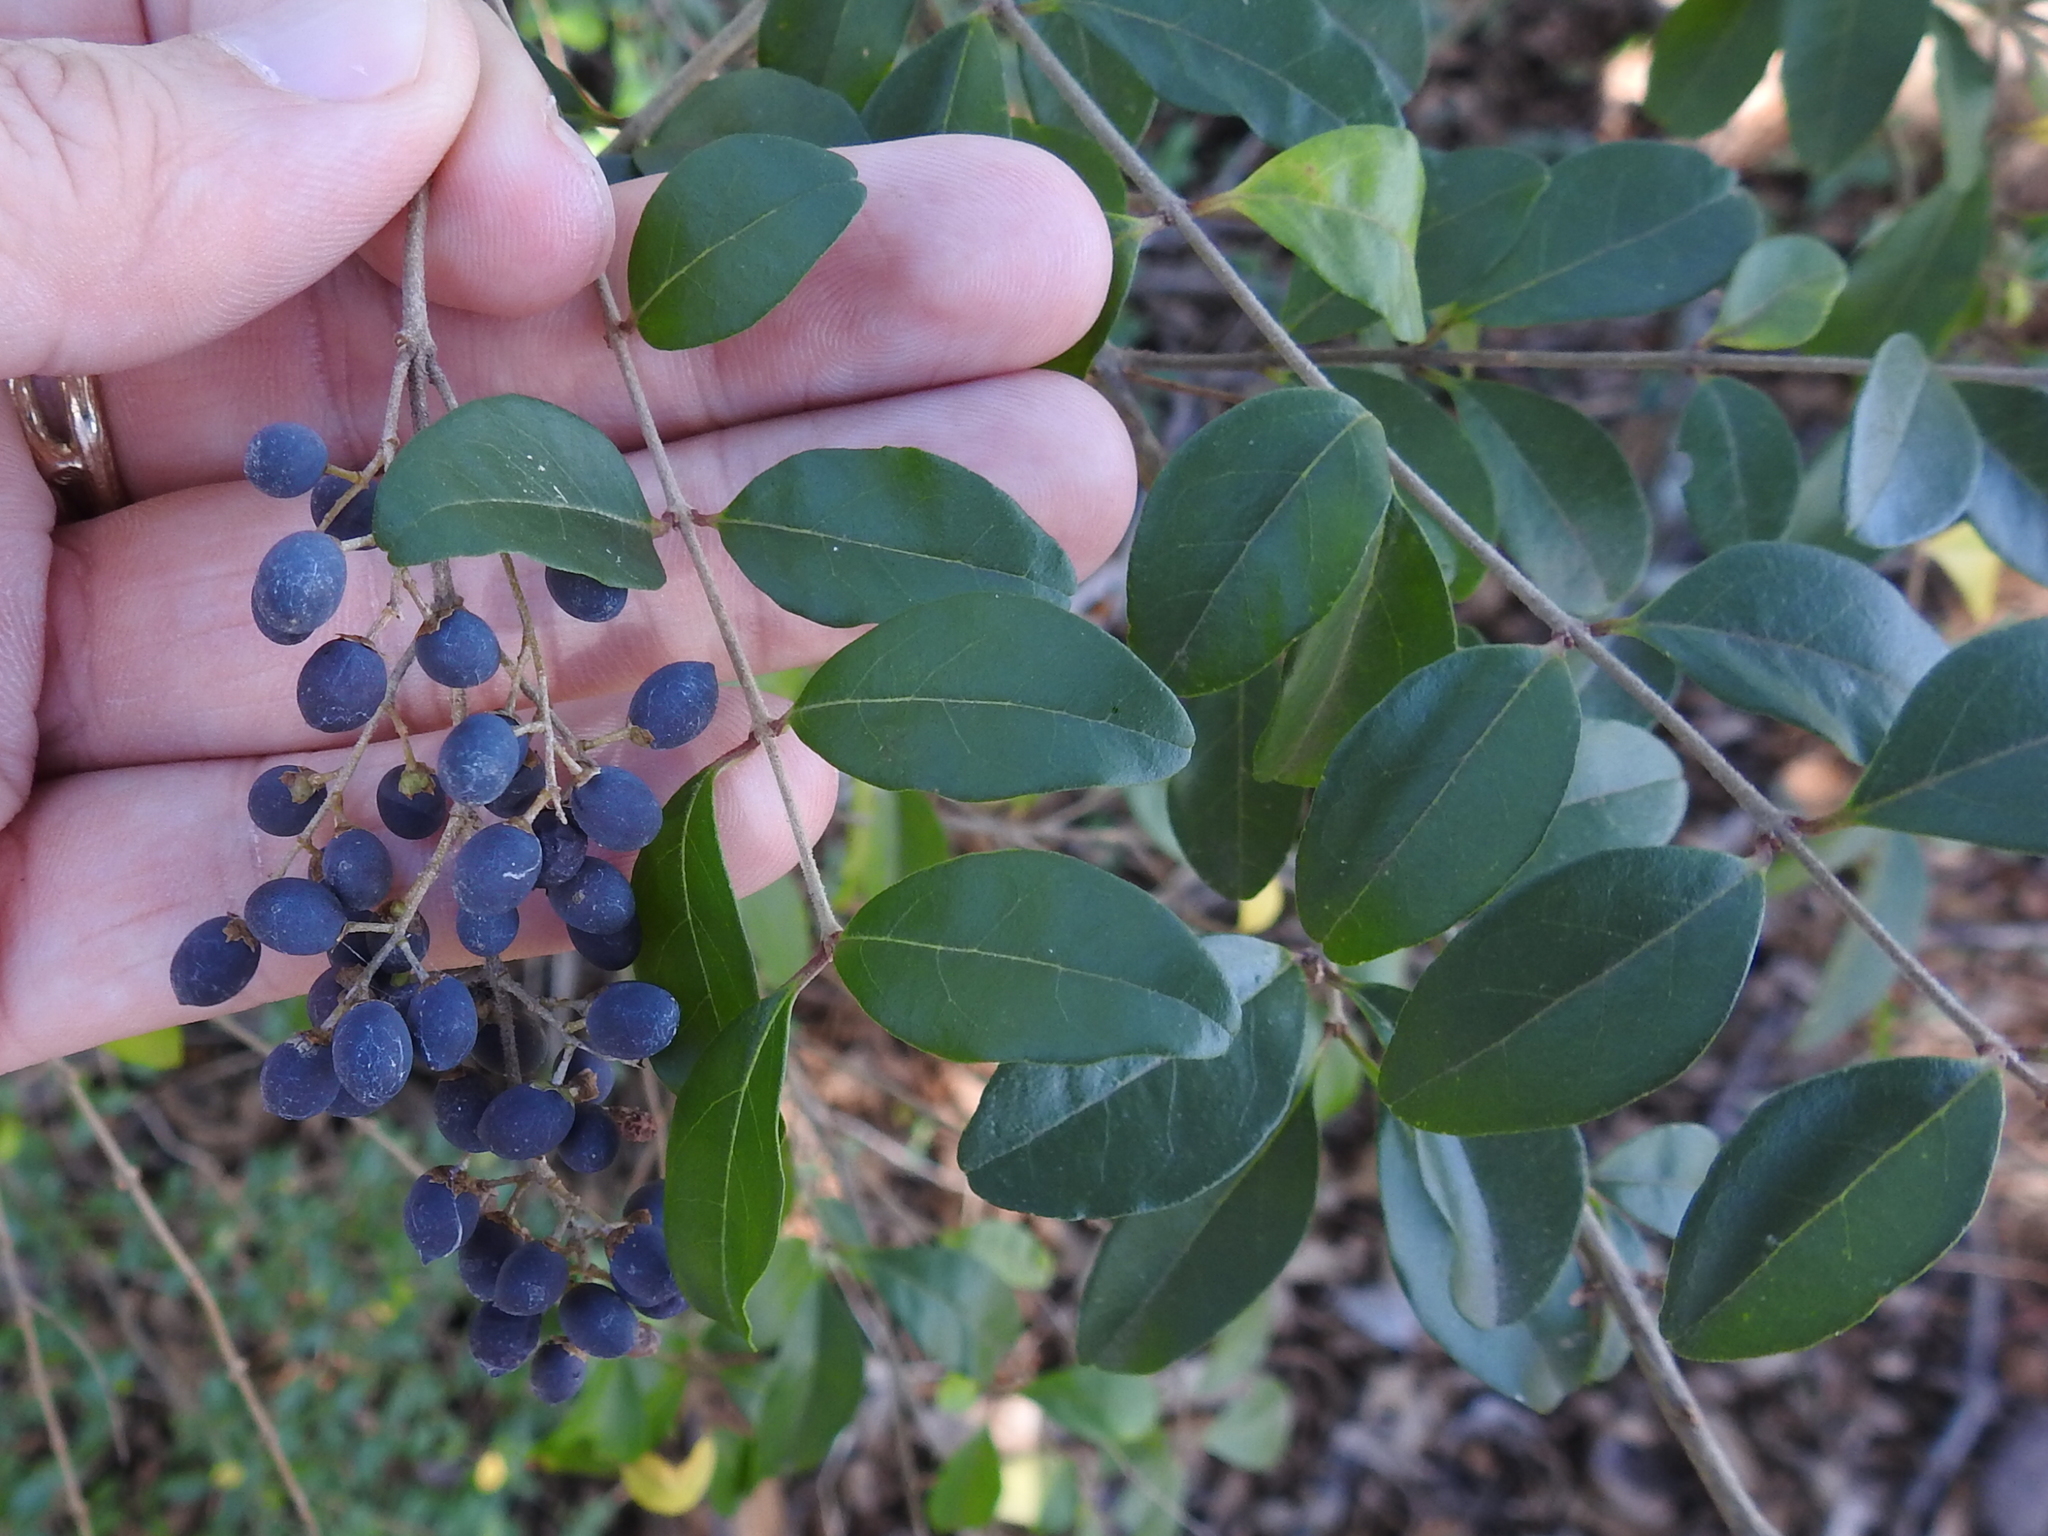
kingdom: Plantae
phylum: Tracheophyta
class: Magnoliopsida
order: Lamiales
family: Oleaceae
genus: Ligustrum
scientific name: Ligustrum sinense
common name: Chinese privet
